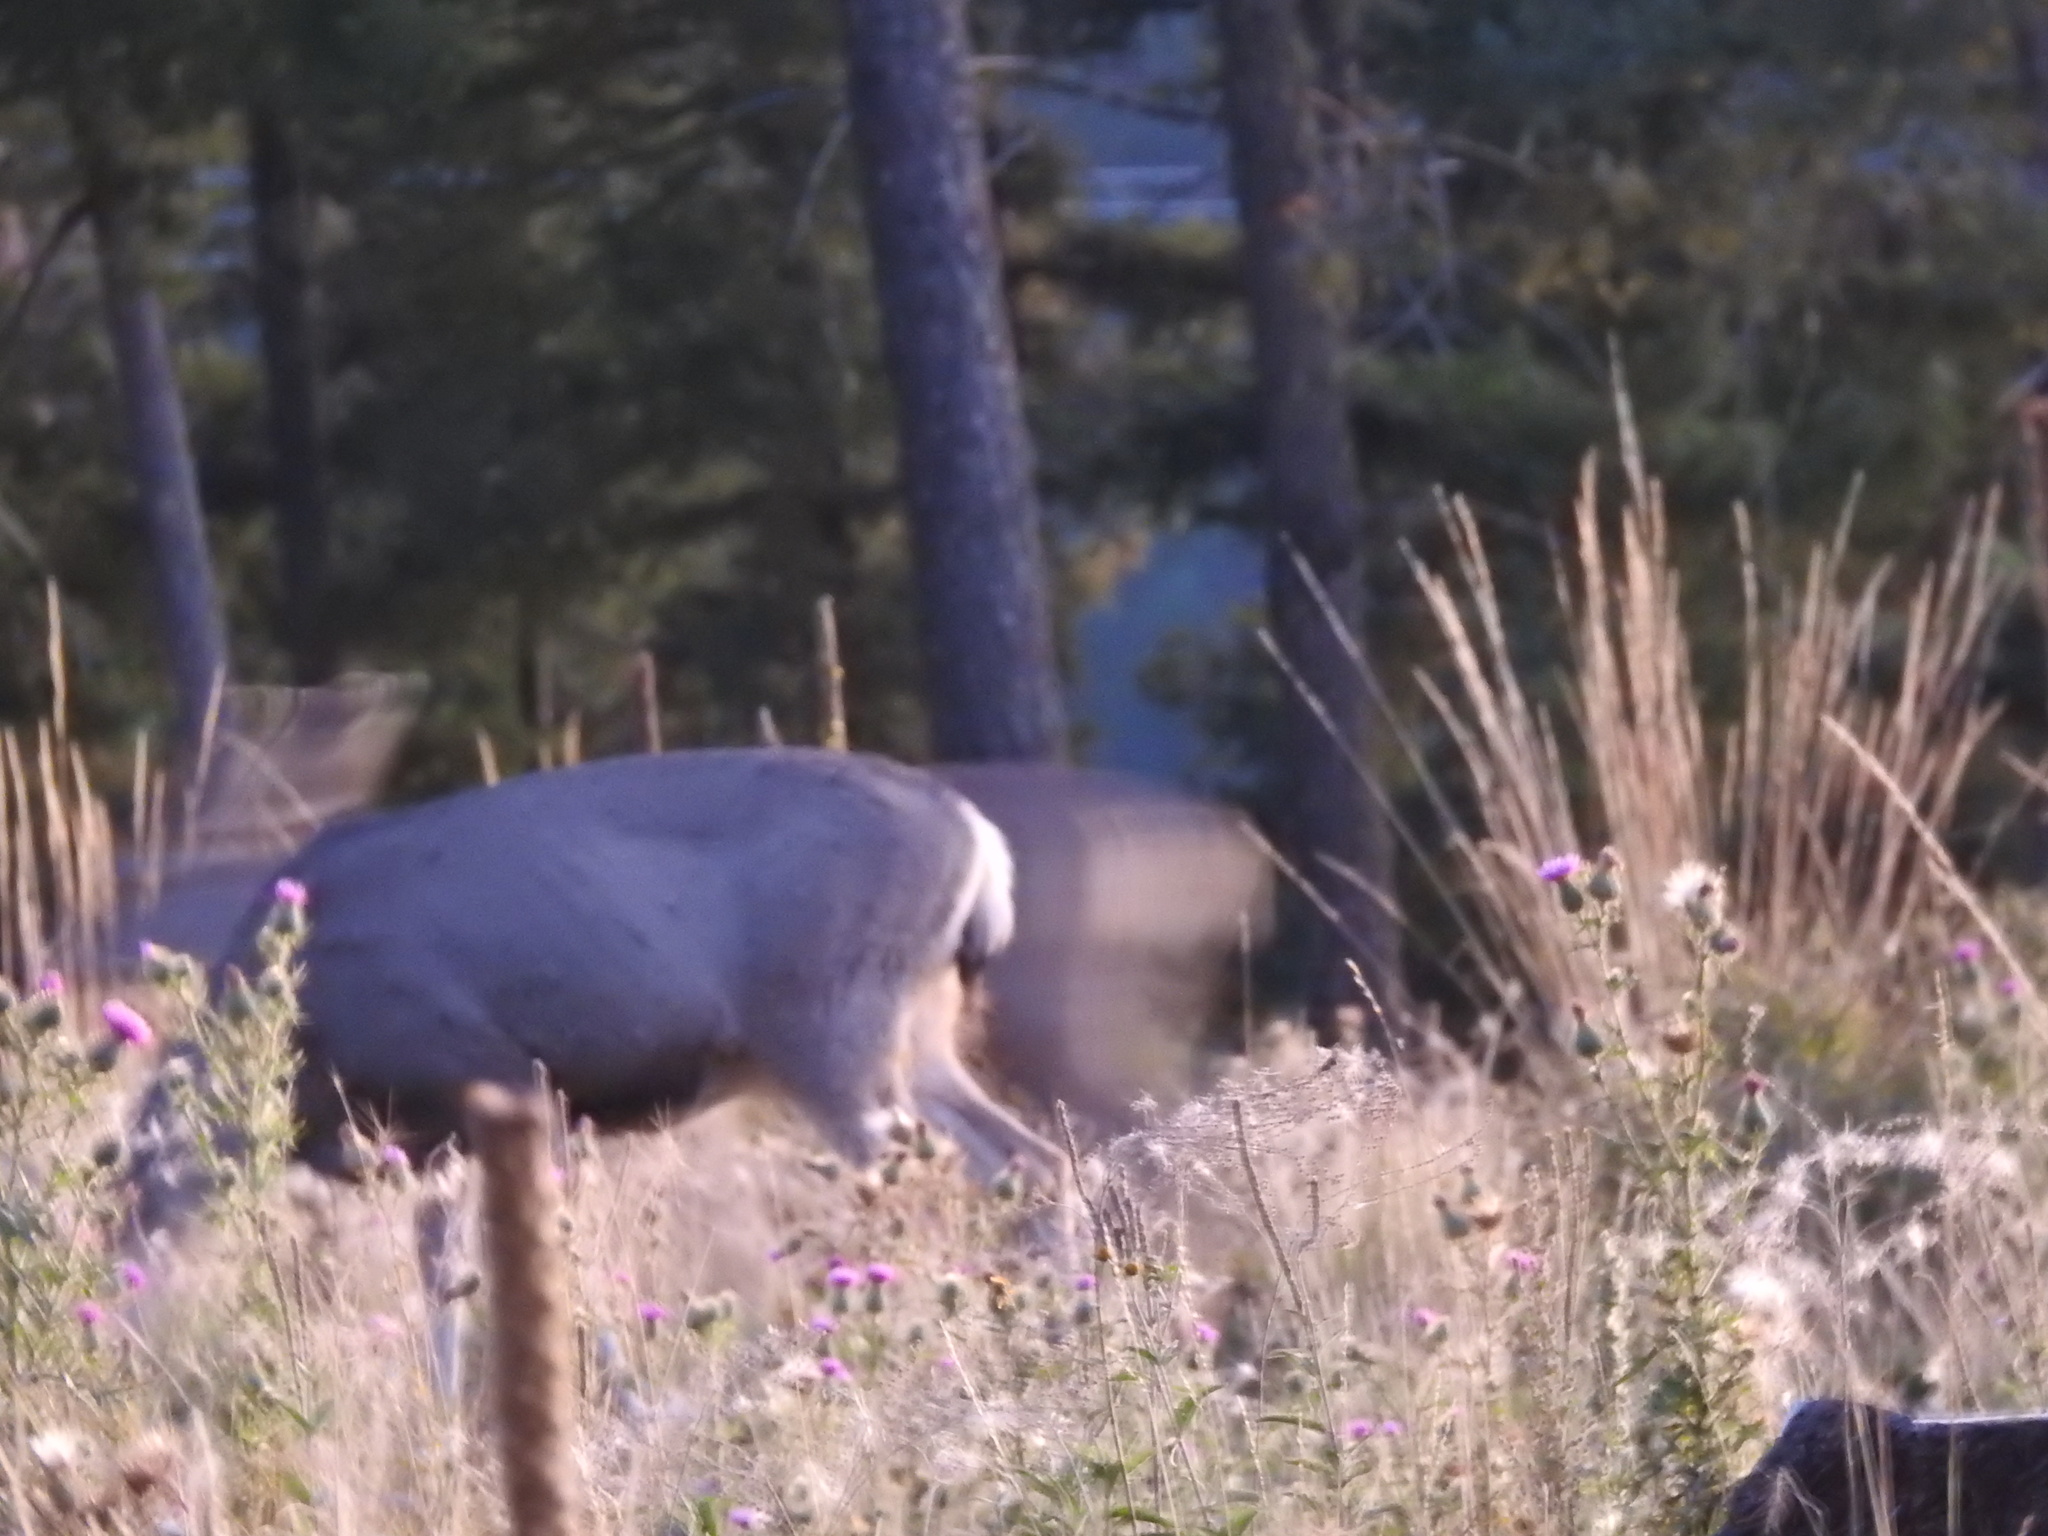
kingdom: Animalia
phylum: Chordata
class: Mammalia
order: Artiodactyla
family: Cervidae
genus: Odocoileus
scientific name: Odocoileus hemionus
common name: Mule deer
